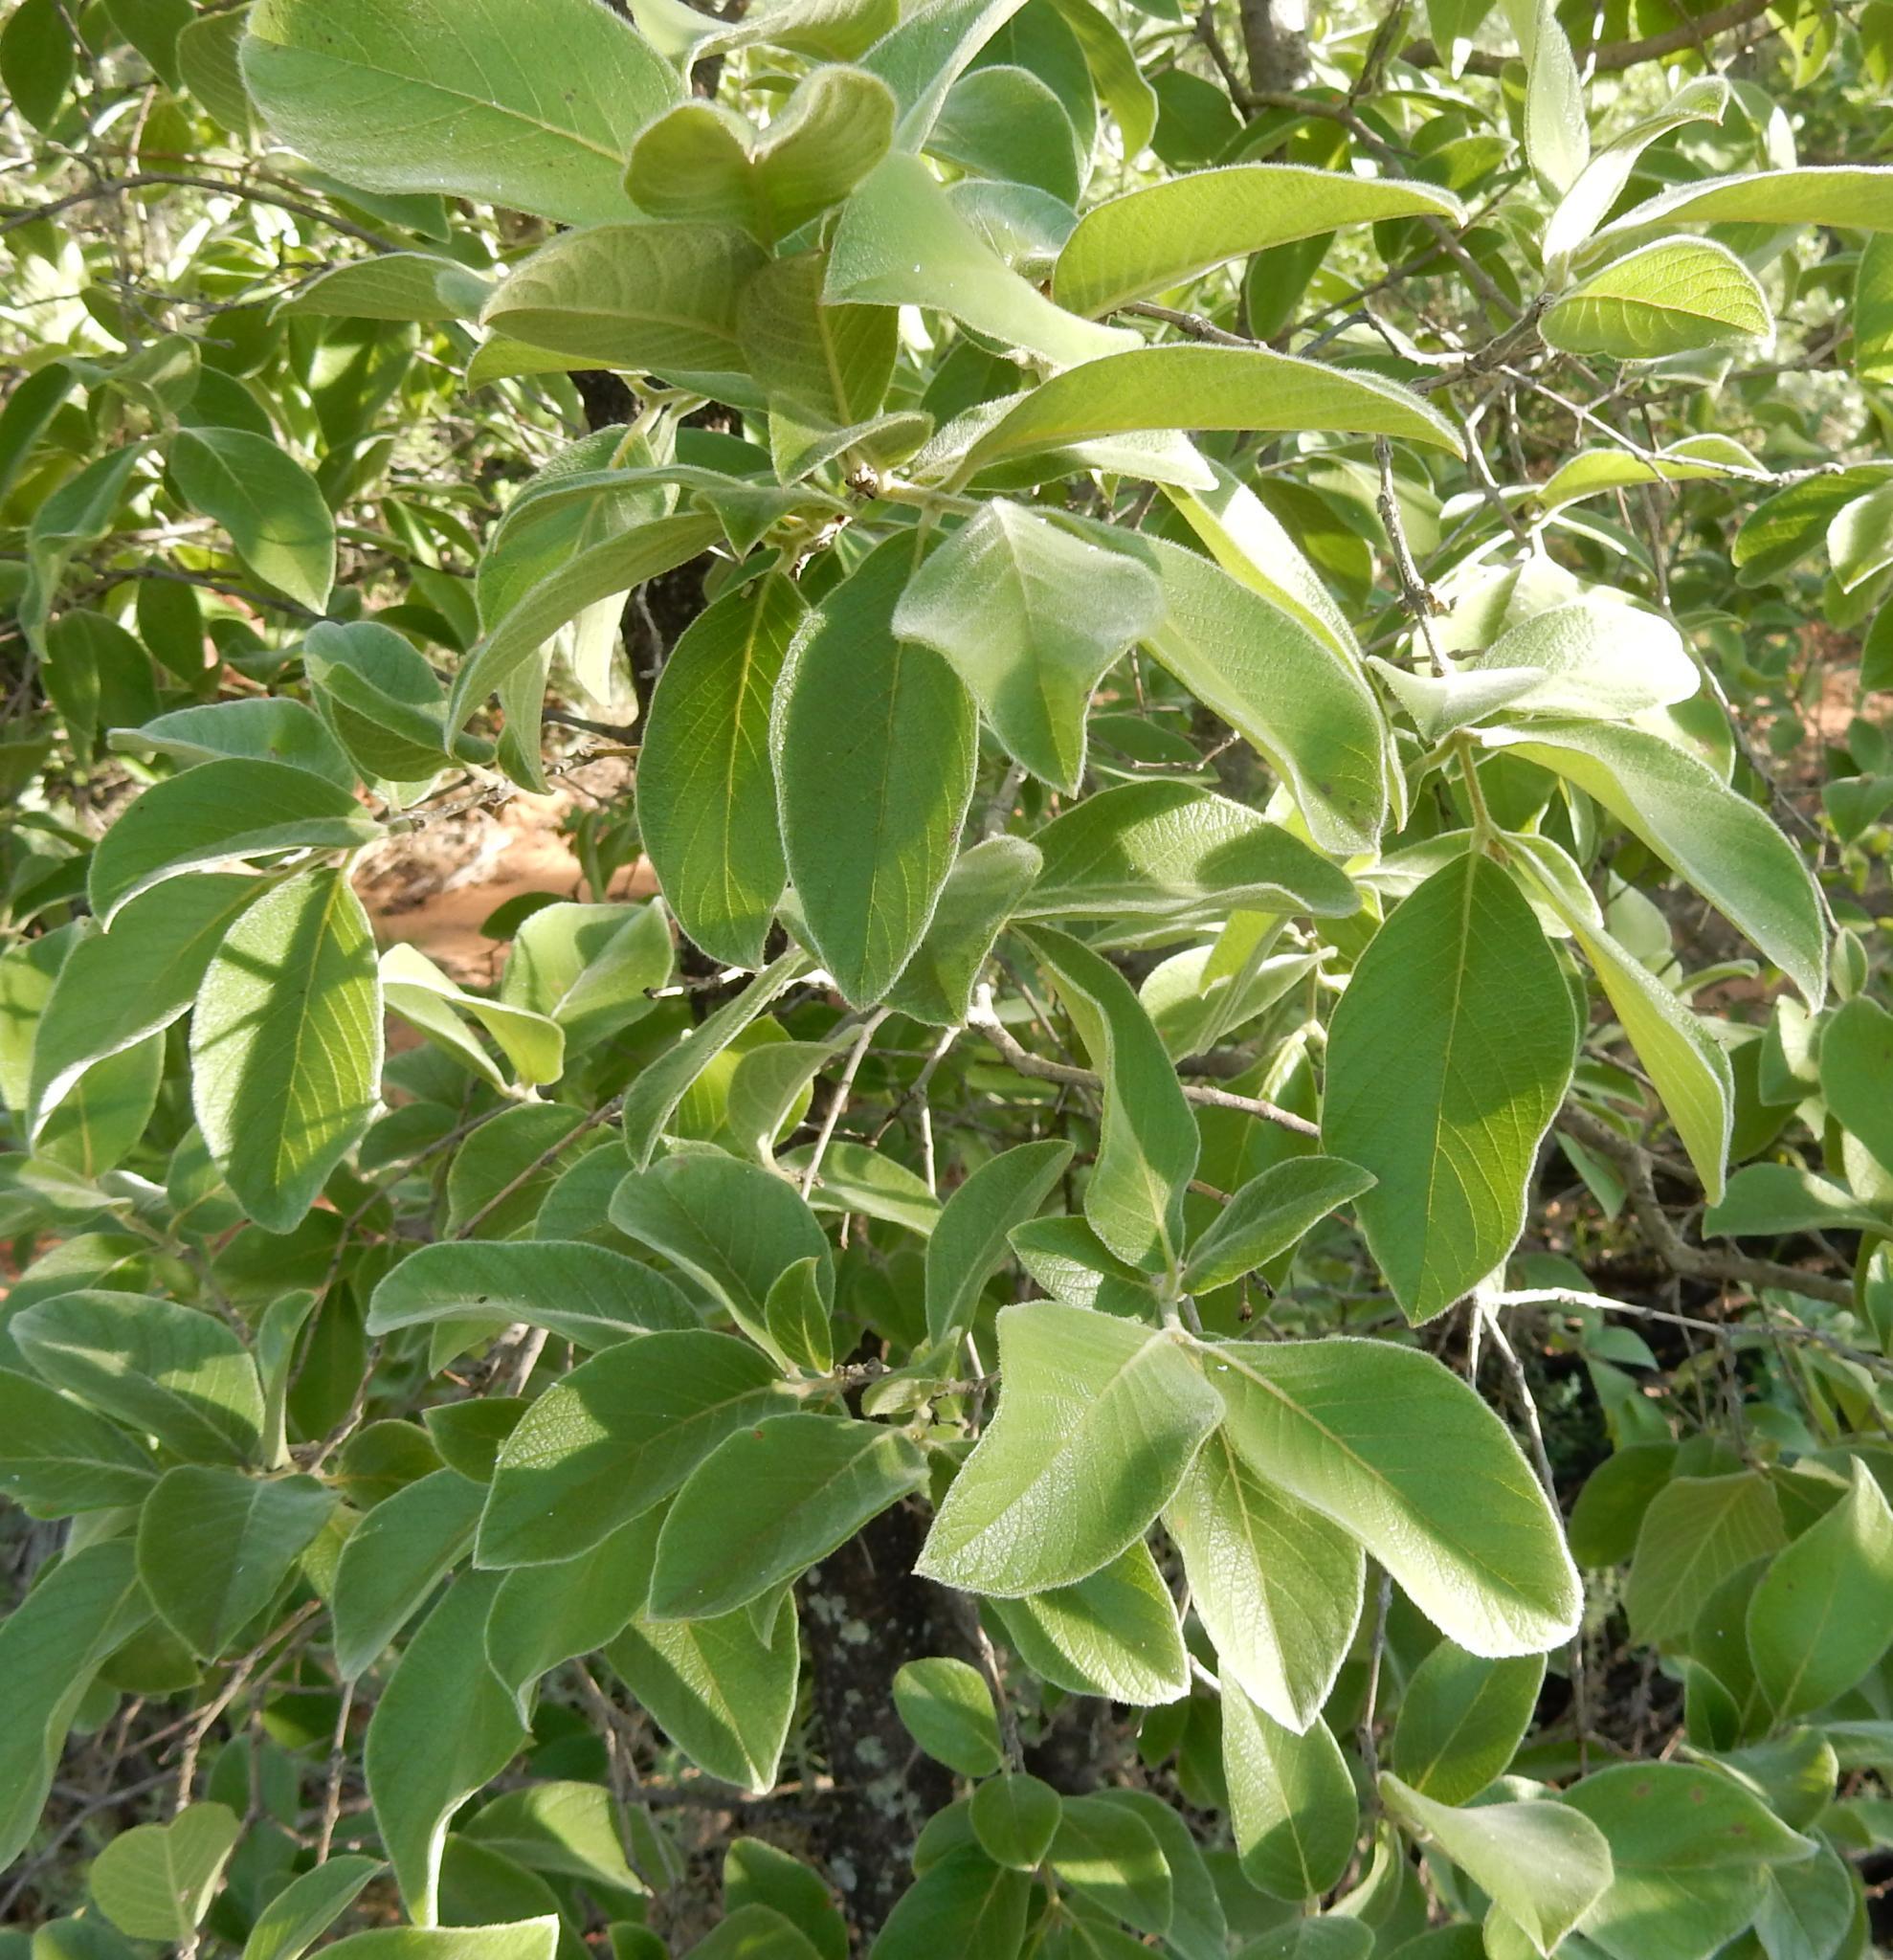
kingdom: Plantae
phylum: Tracheophyta
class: Magnoliopsida
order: Myrtales
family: Combretaceae
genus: Combretum
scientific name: Combretum molle
